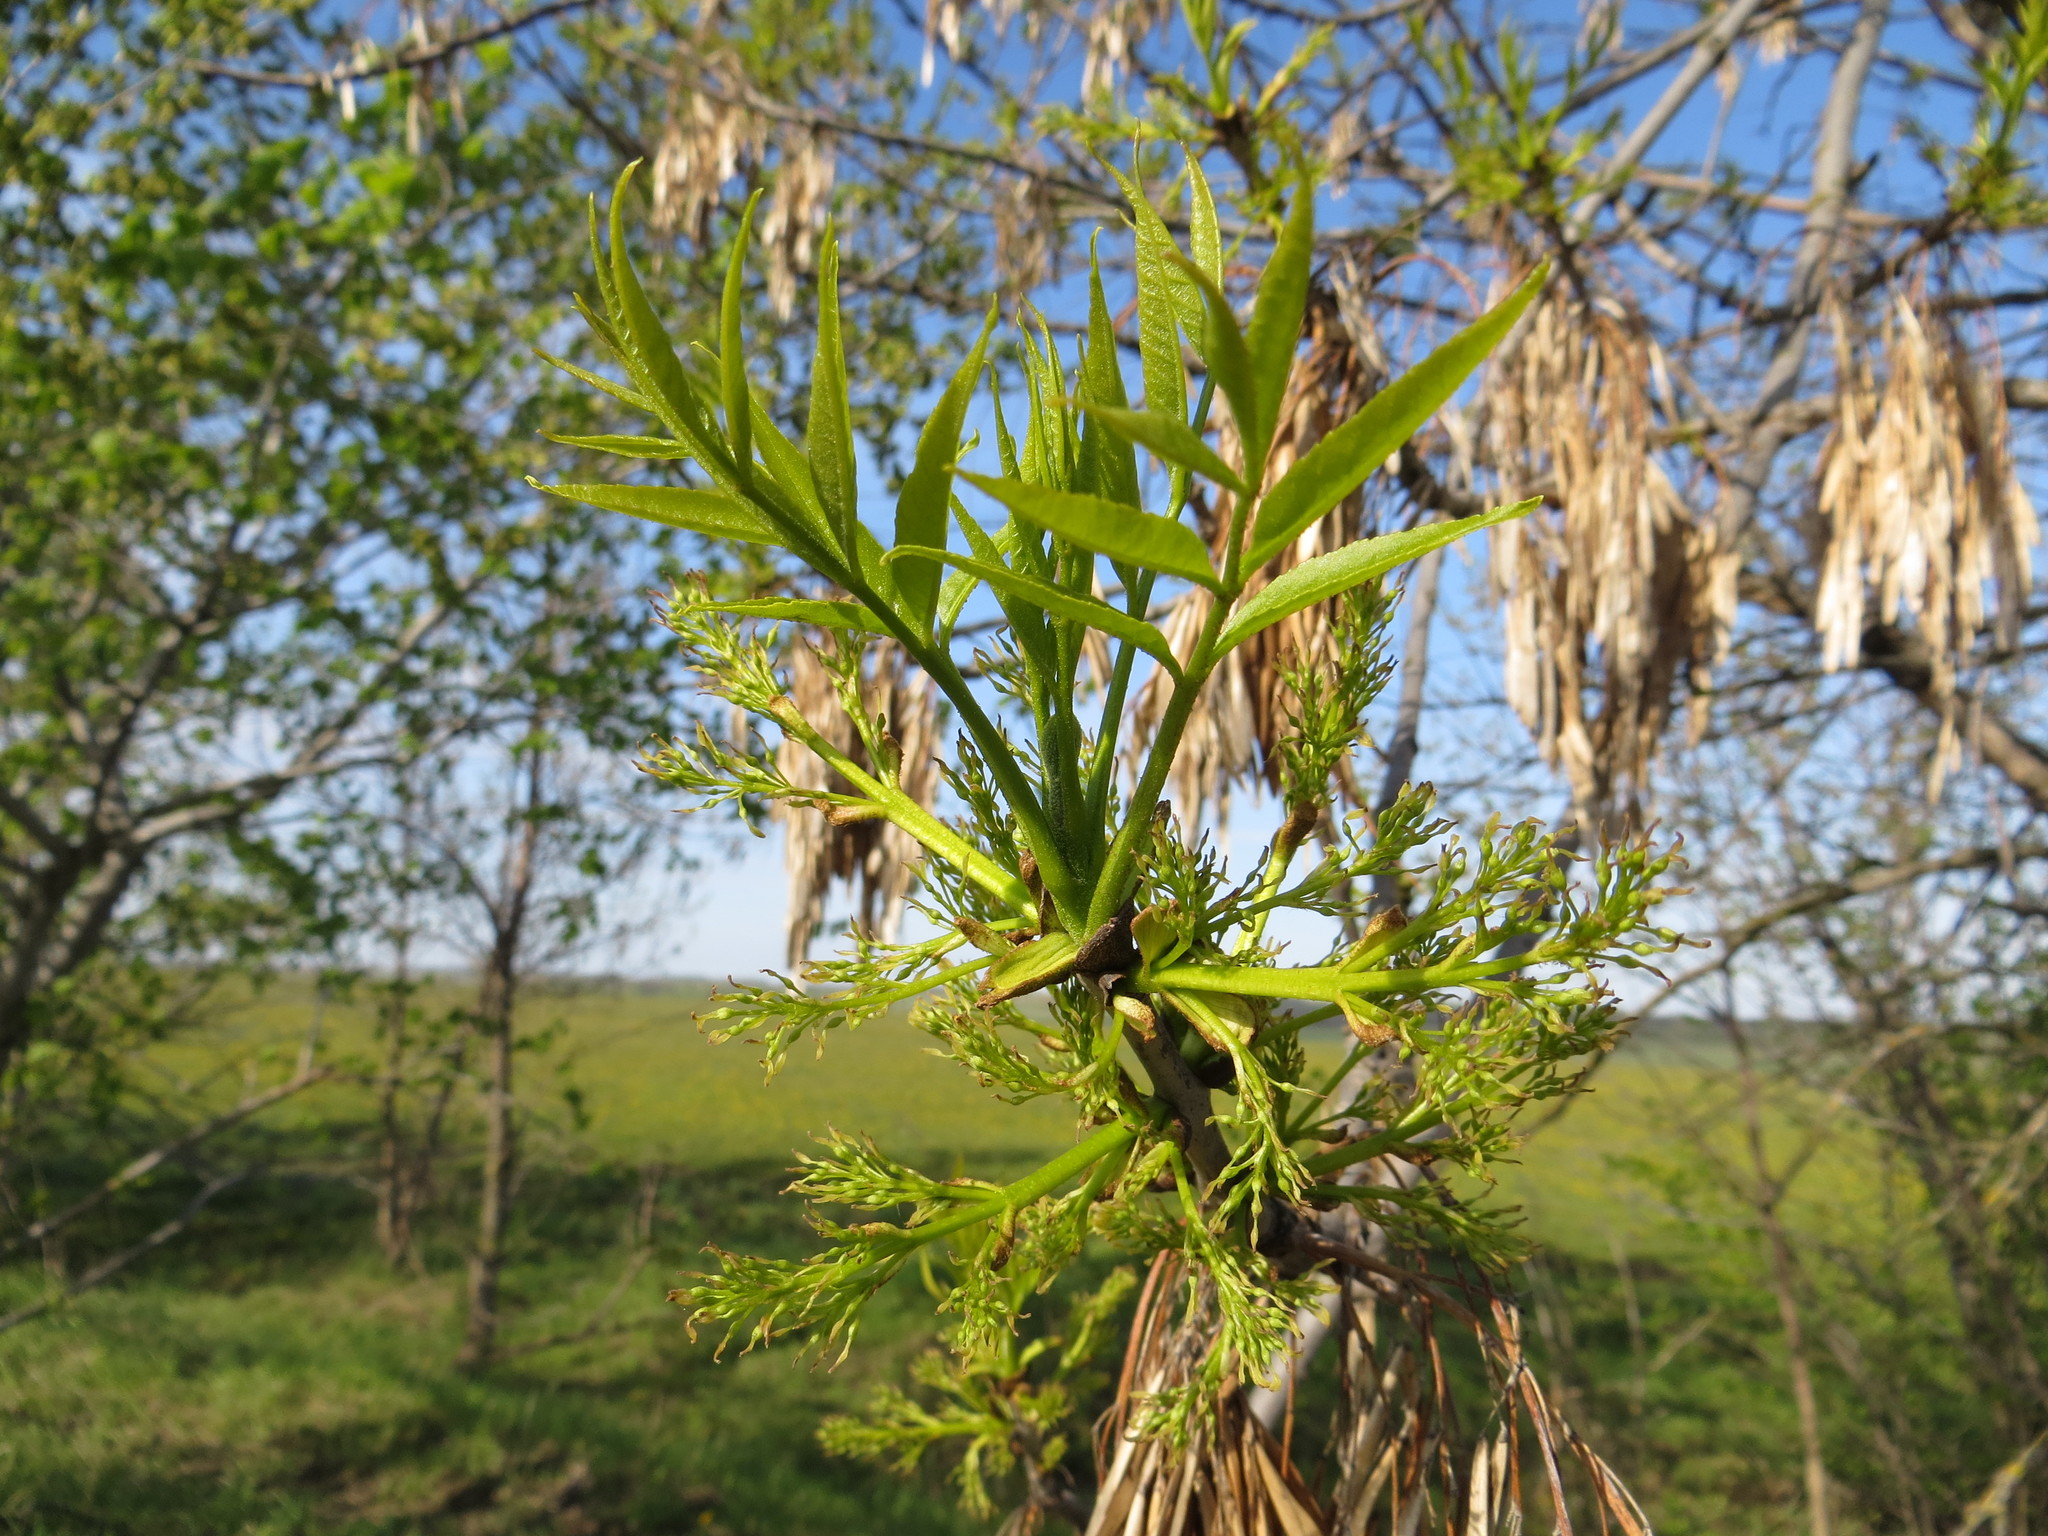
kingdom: Plantae
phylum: Tracheophyta
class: Magnoliopsida
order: Lamiales
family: Oleaceae
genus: Fraxinus
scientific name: Fraxinus excelsior
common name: European ash
